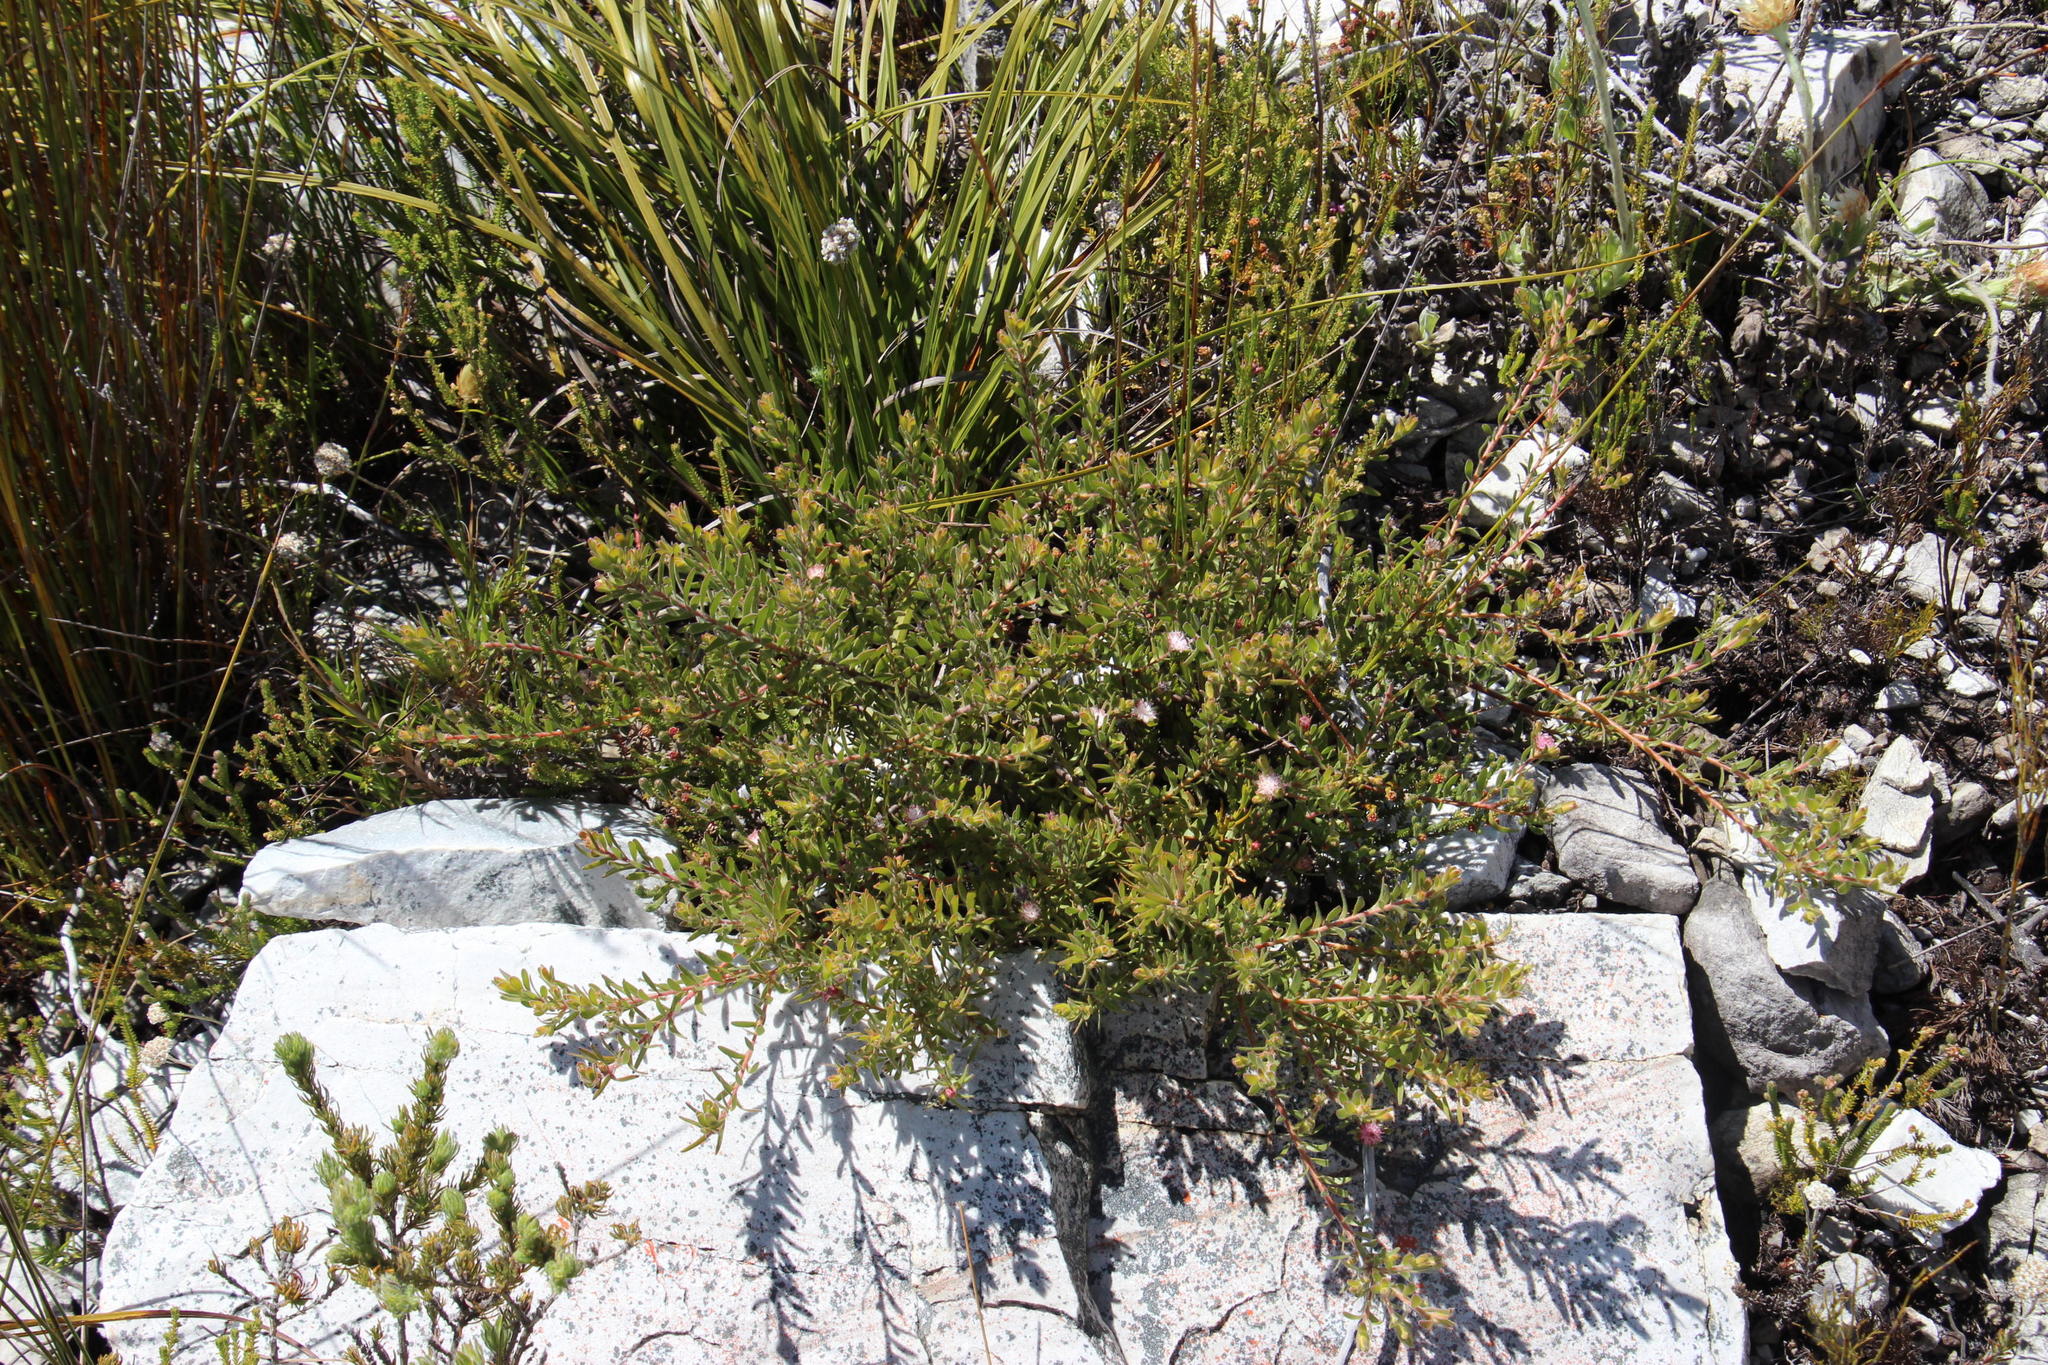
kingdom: Plantae
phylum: Tracheophyta
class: Magnoliopsida
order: Proteales
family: Proteaceae
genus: Diastella
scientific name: Diastella divaricata
